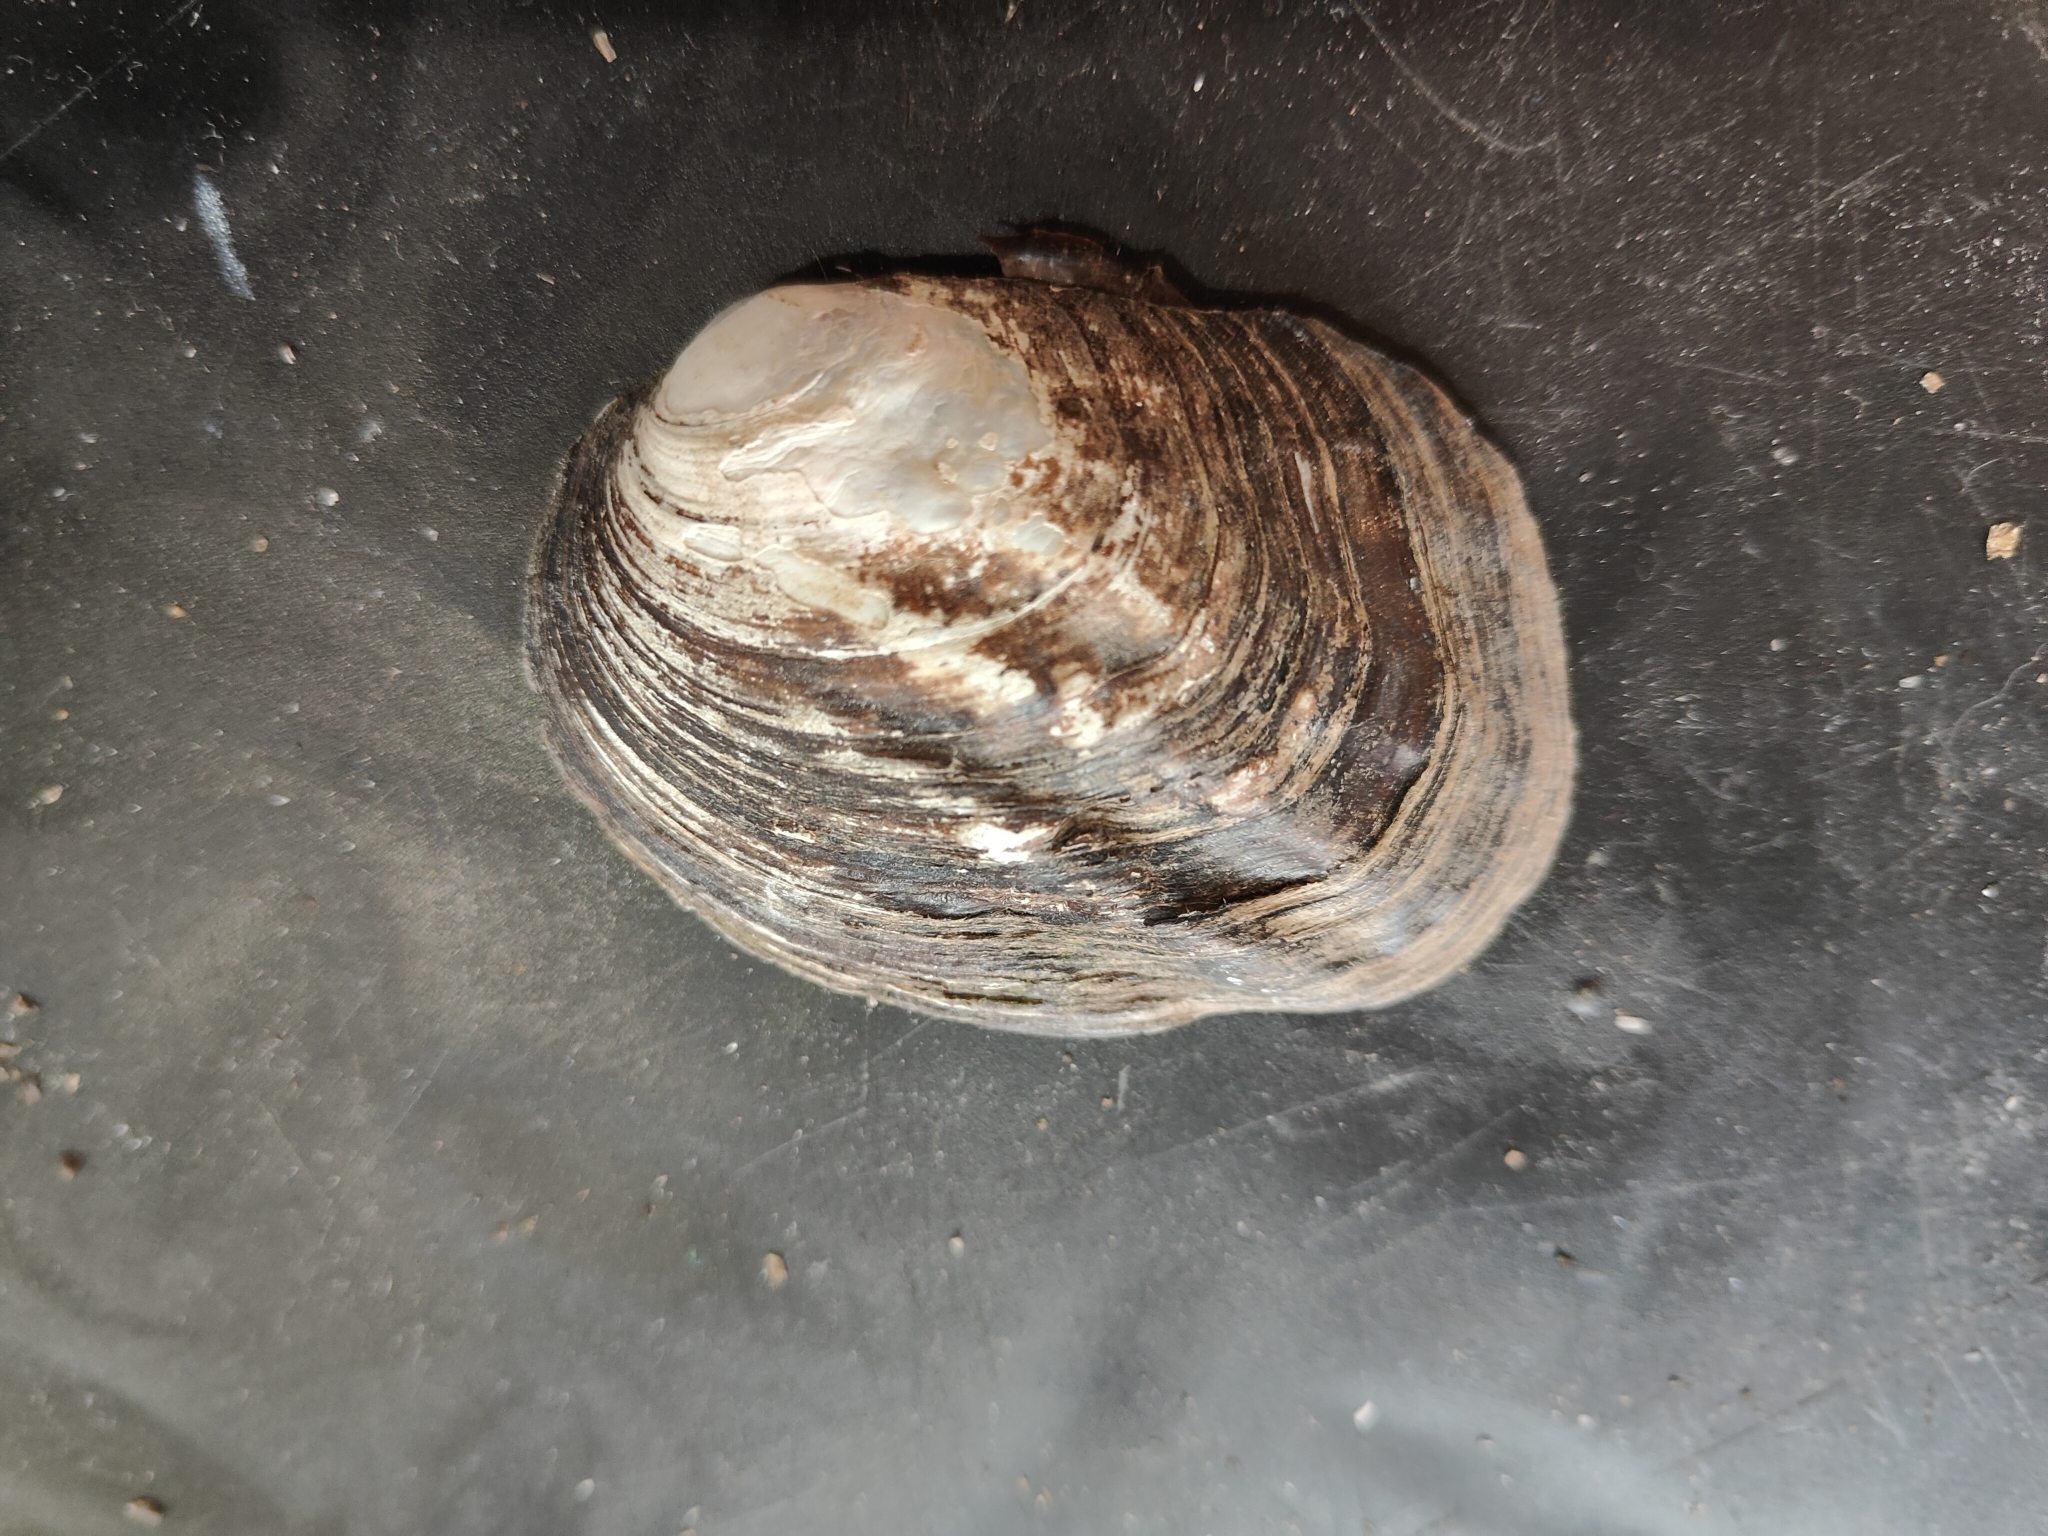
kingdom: Animalia
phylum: Mollusca
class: Bivalvia
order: Unionida
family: Unionidae
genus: Amblema
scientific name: Amblema plicata
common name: Threeridge
